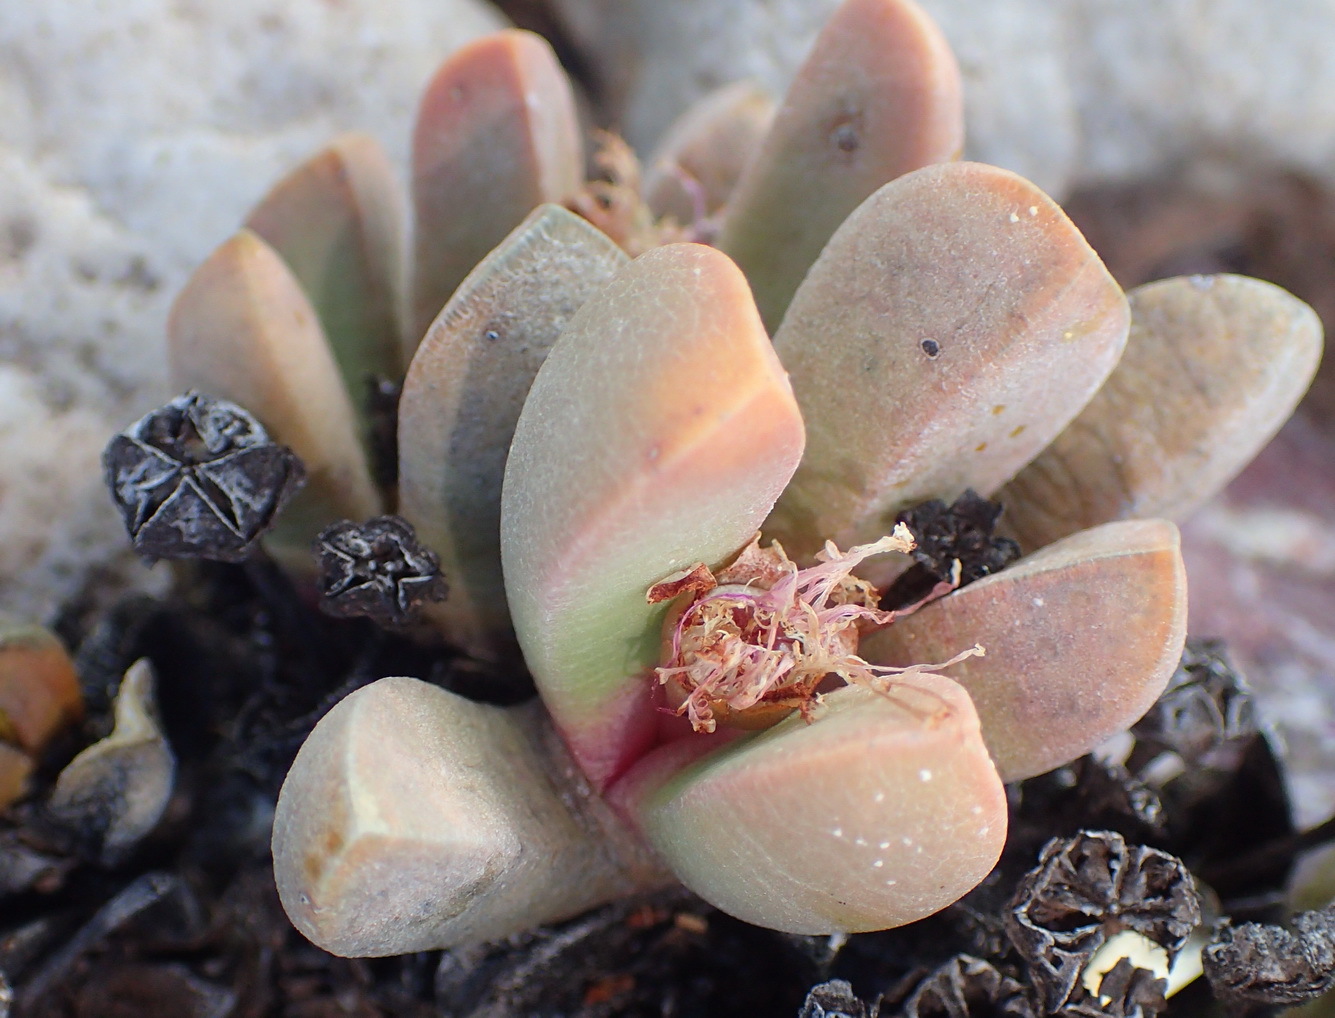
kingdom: Plantae
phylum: Tracheophyta
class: Magnoliopsida
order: Caryophyllales
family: Aizoaceae
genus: Cerochlamys
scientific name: Cerochlamys pachyphylla
